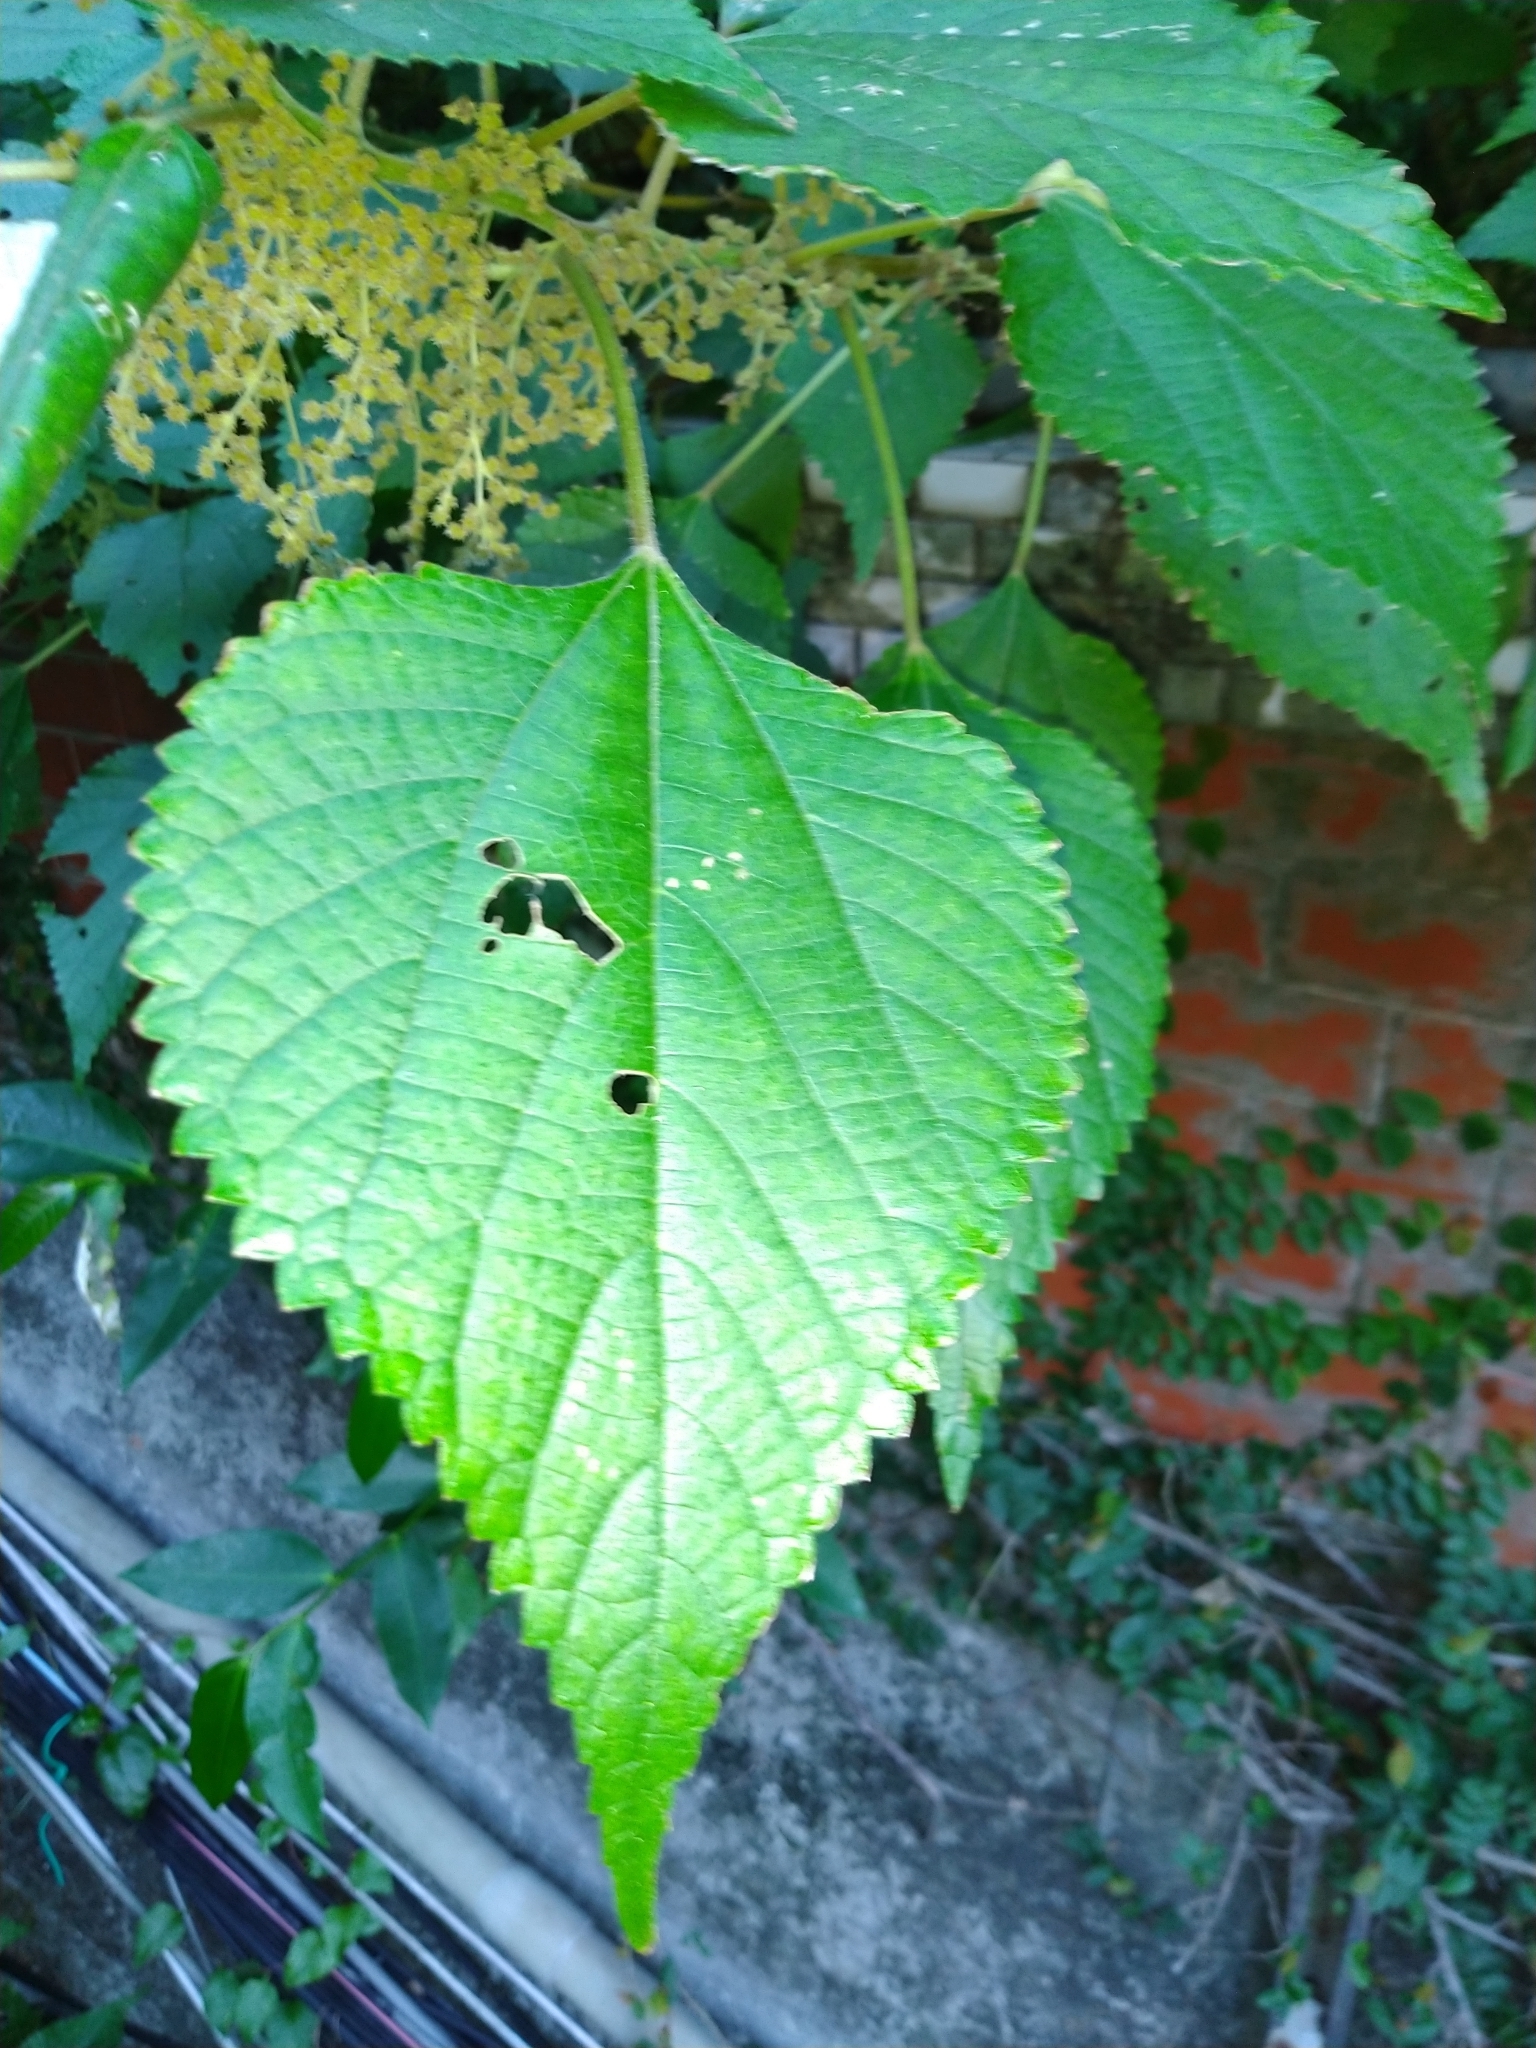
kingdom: Plantae
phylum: Tracheophyta
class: Magnoliopsida
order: Rosales
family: Urticaceae
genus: Boehmeria
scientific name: Boehmeria nivea
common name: Ramie chinese grass
